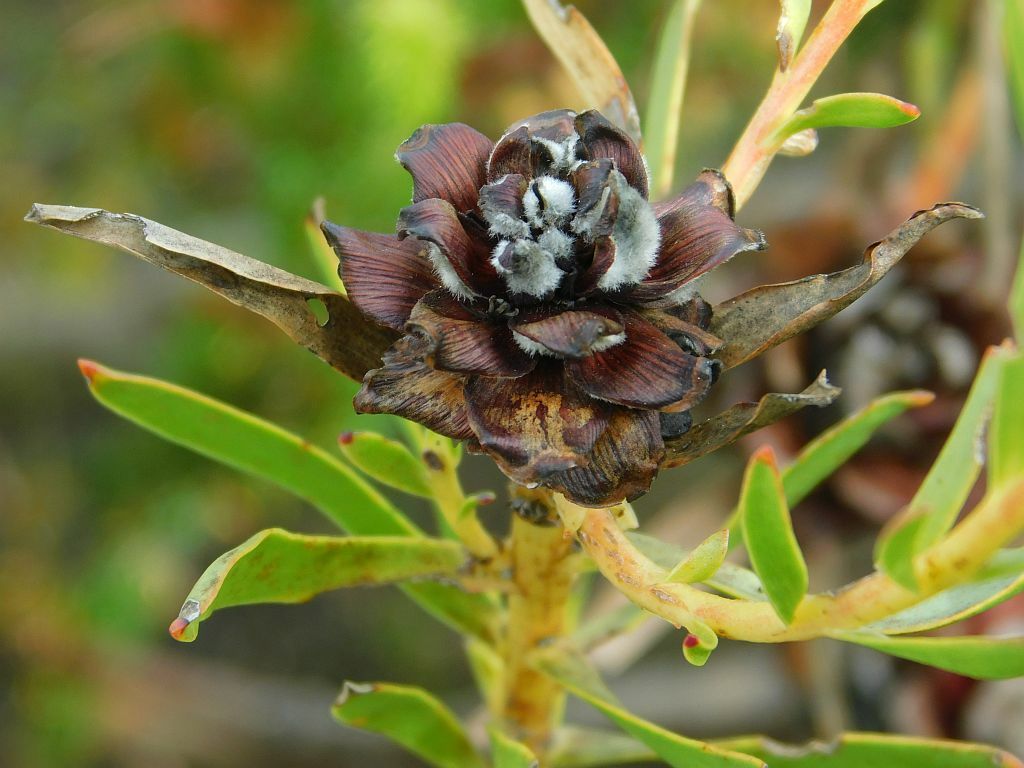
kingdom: Plantae
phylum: Tracheophyta
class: Magnoliopsida
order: Proteales
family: Proteaceae
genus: Leucadendron
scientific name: Leucadendron salignum
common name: Common sunshine conebush
